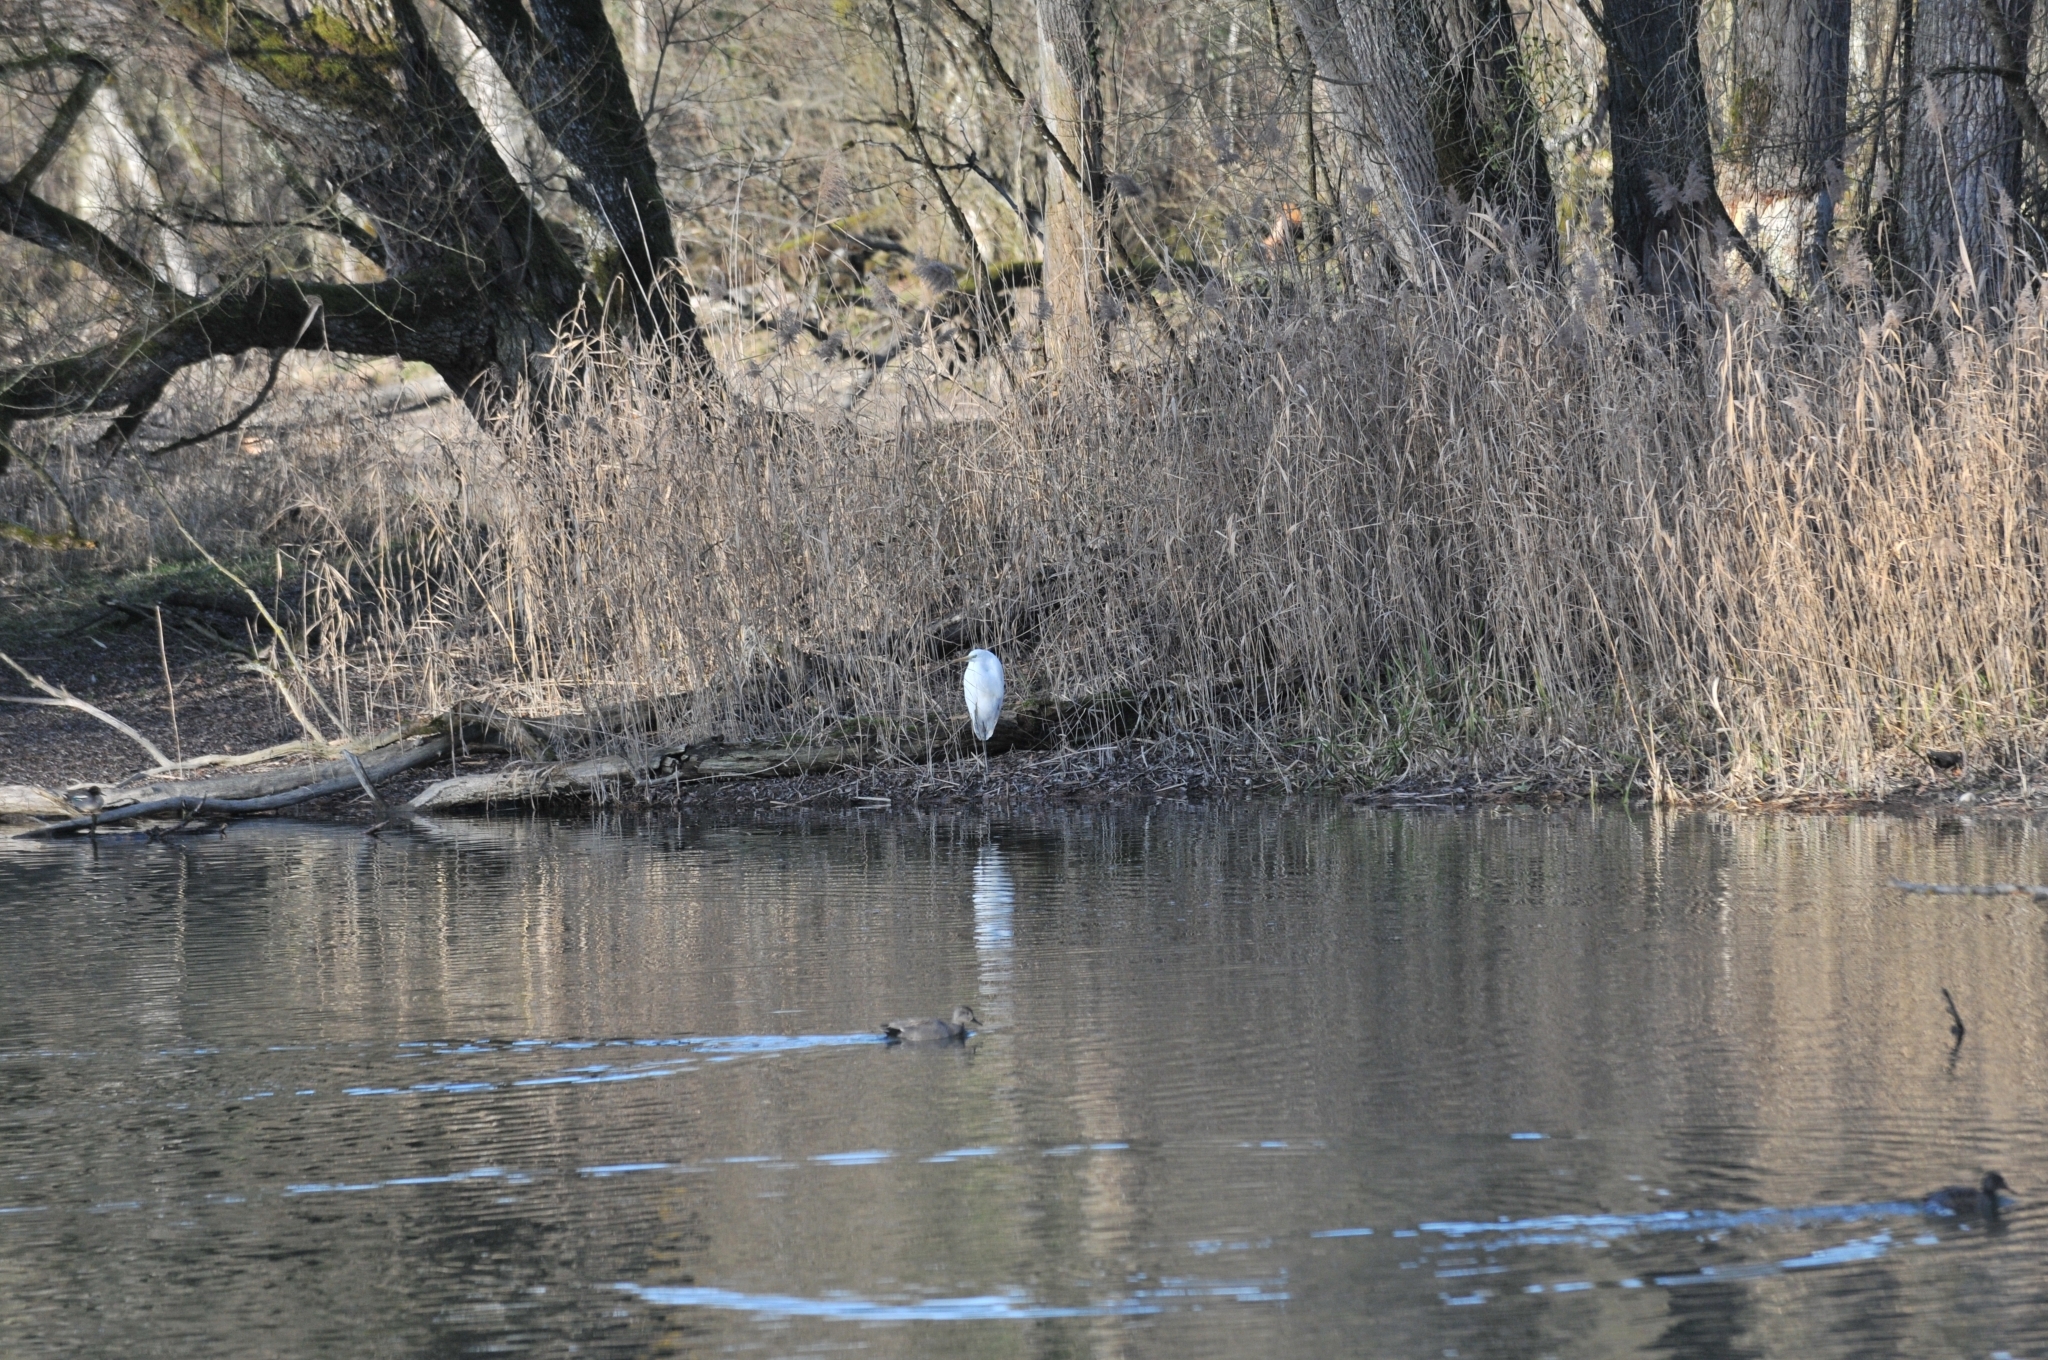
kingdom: Animalia
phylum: Chordata
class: Aves
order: Pelecaniformes
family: Ardeidae
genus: Ardea
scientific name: Ardea alba
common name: Great egret
